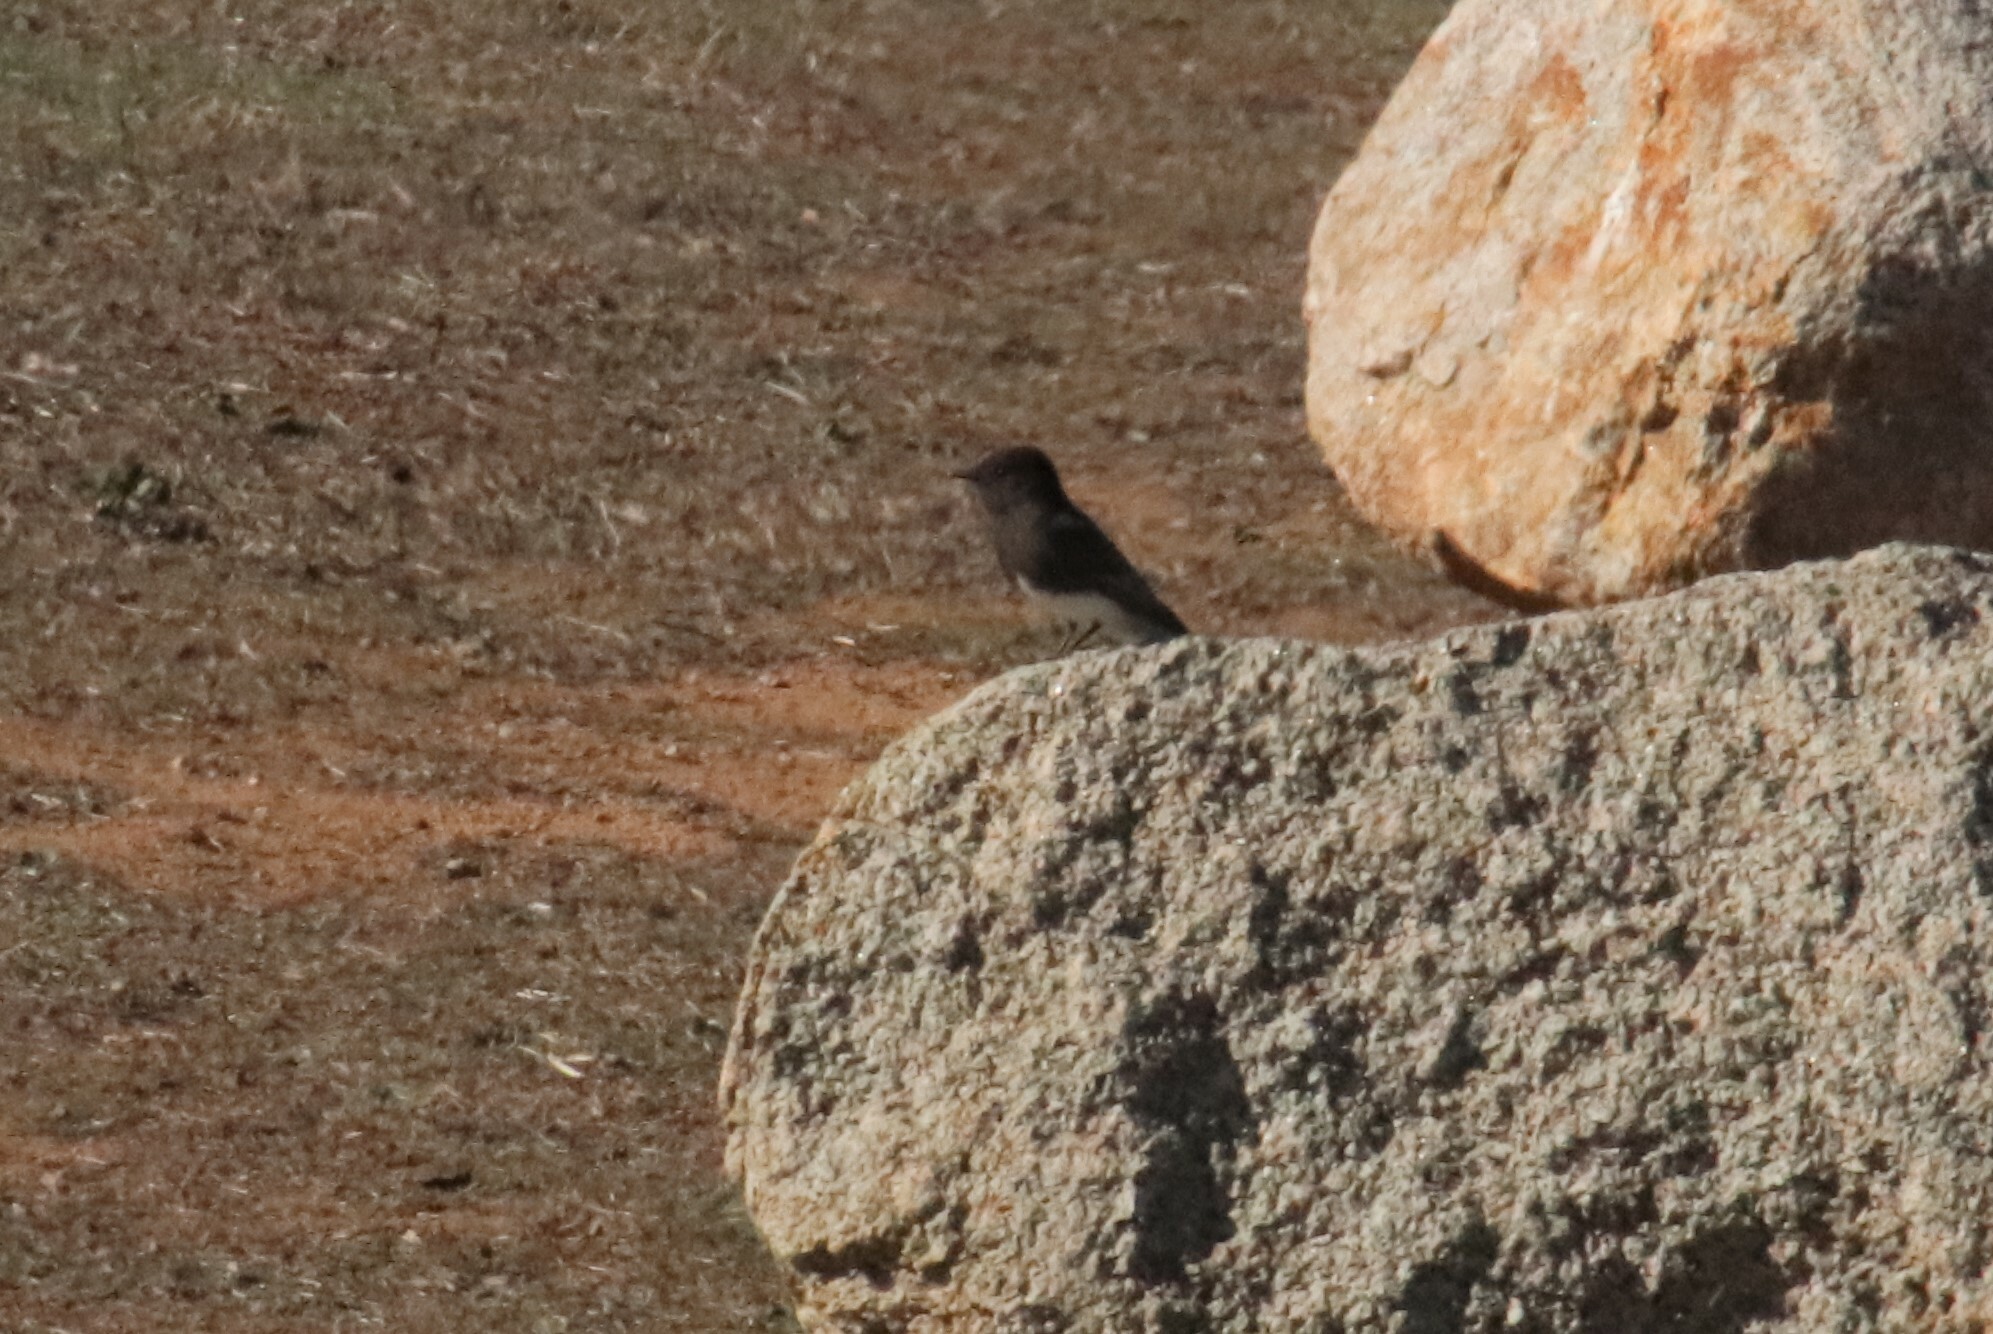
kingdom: Animalia
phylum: Chordata
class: Aves
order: Passeriformes
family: Tyrannidae
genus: Sayornis
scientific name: Sayornis nigricans
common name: Black phoebe
